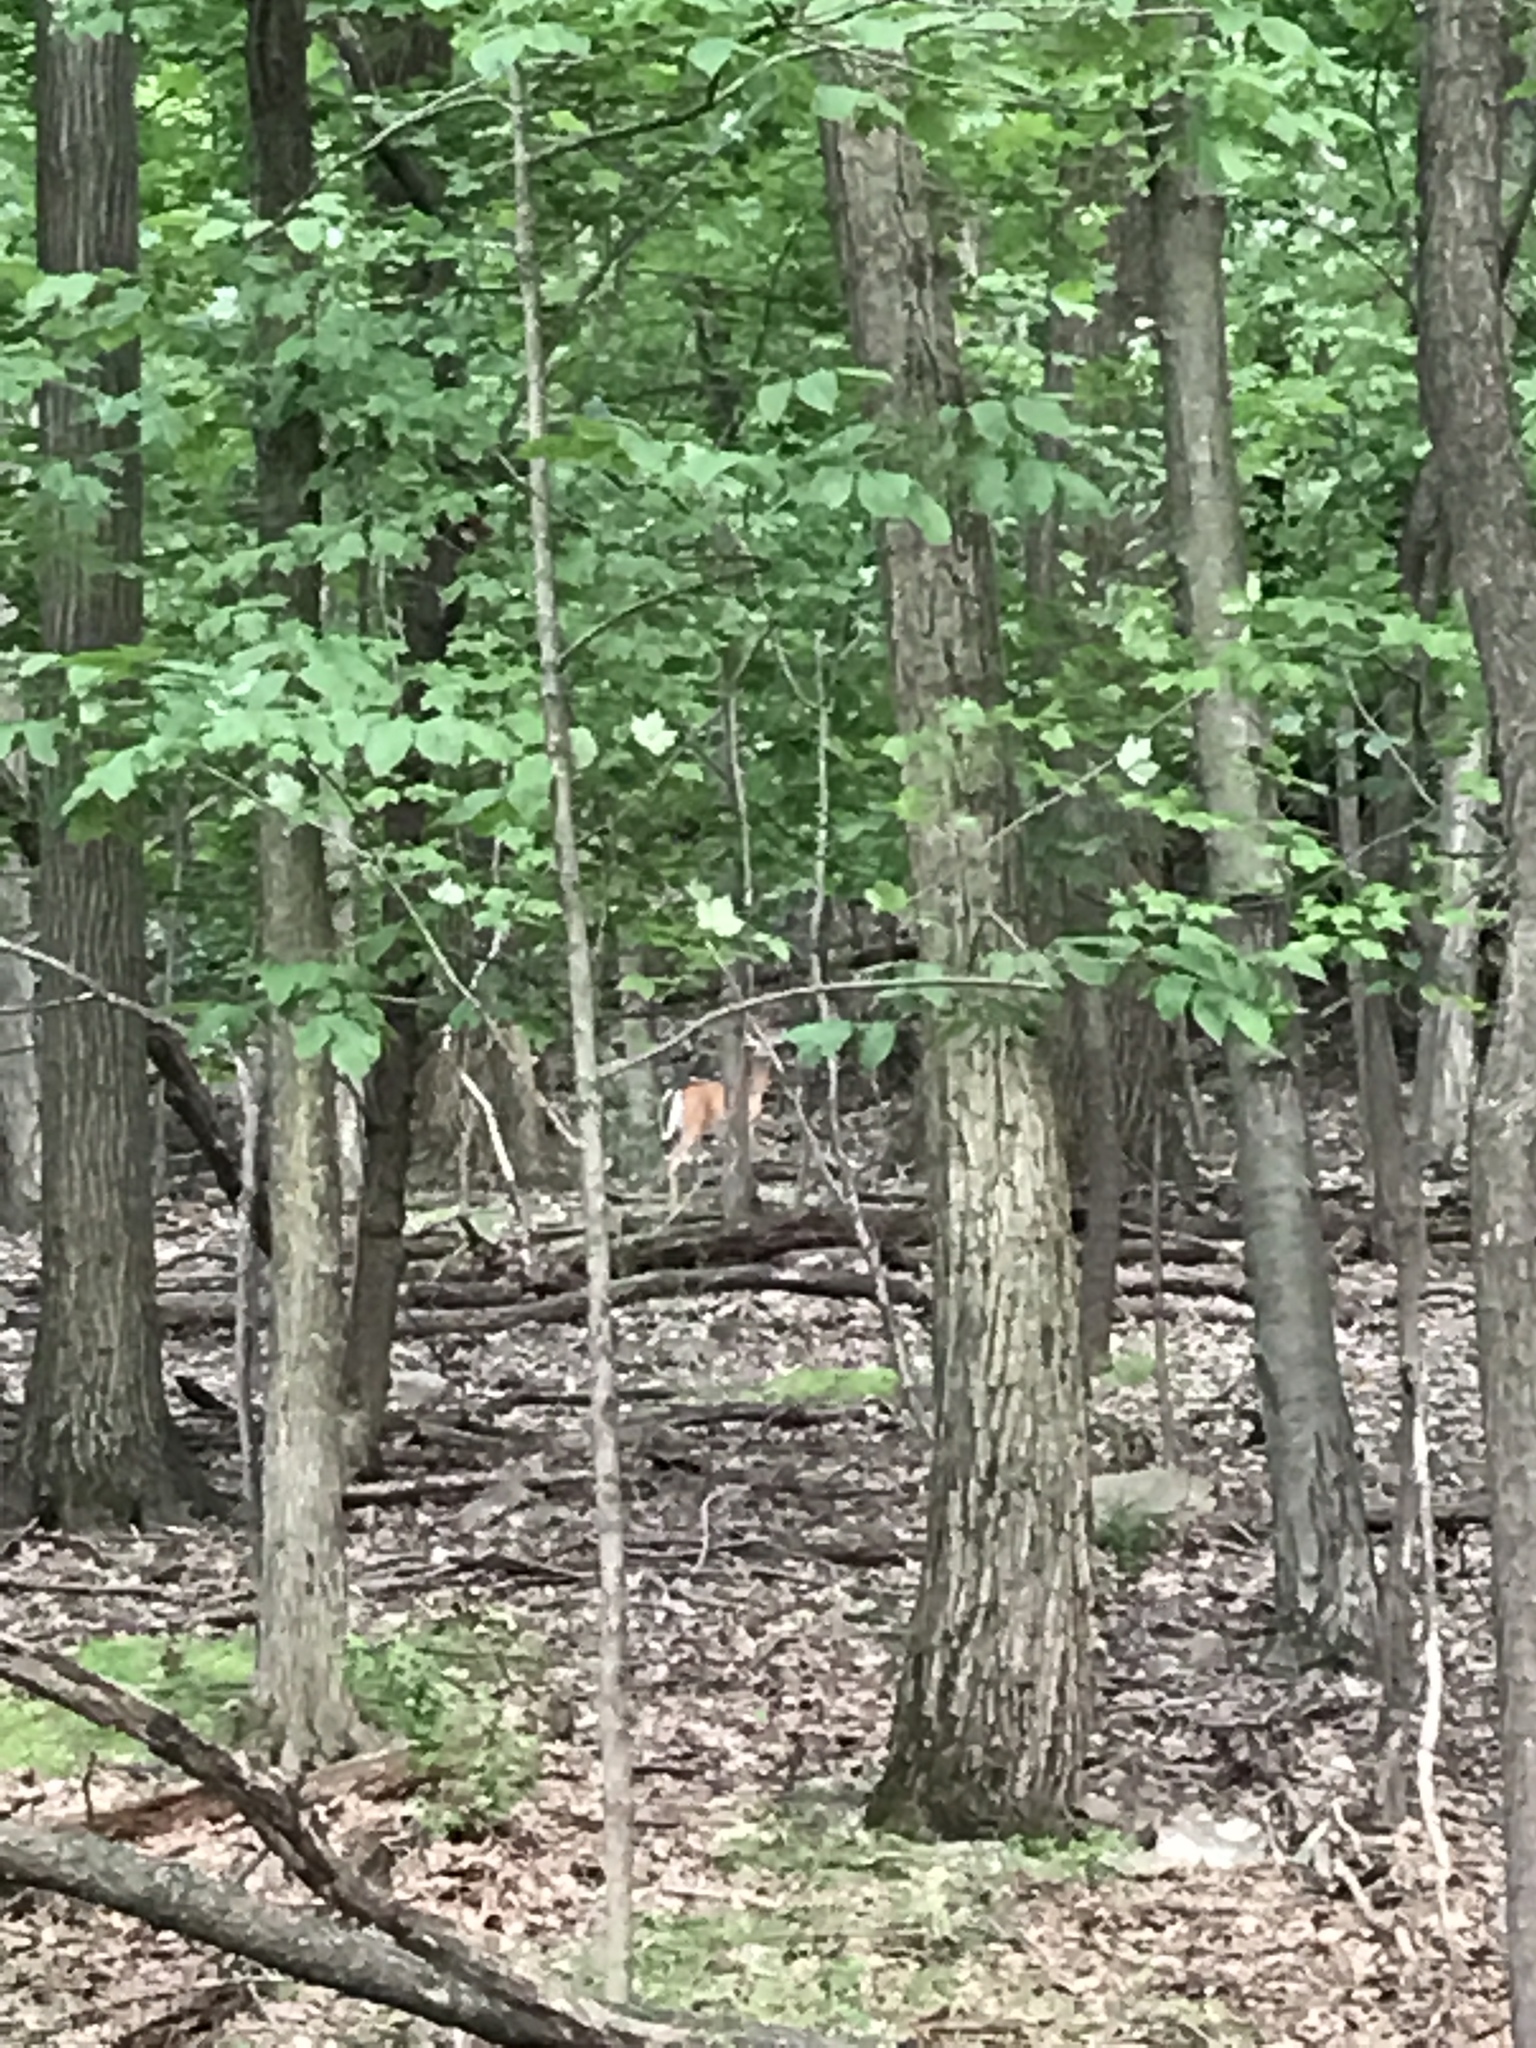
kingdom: Animalia
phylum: Chordata
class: Mammalia
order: Artiodactyla
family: Cervidae
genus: Odocoileus
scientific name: Odocoileus virginianus
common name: White-tailed deer
